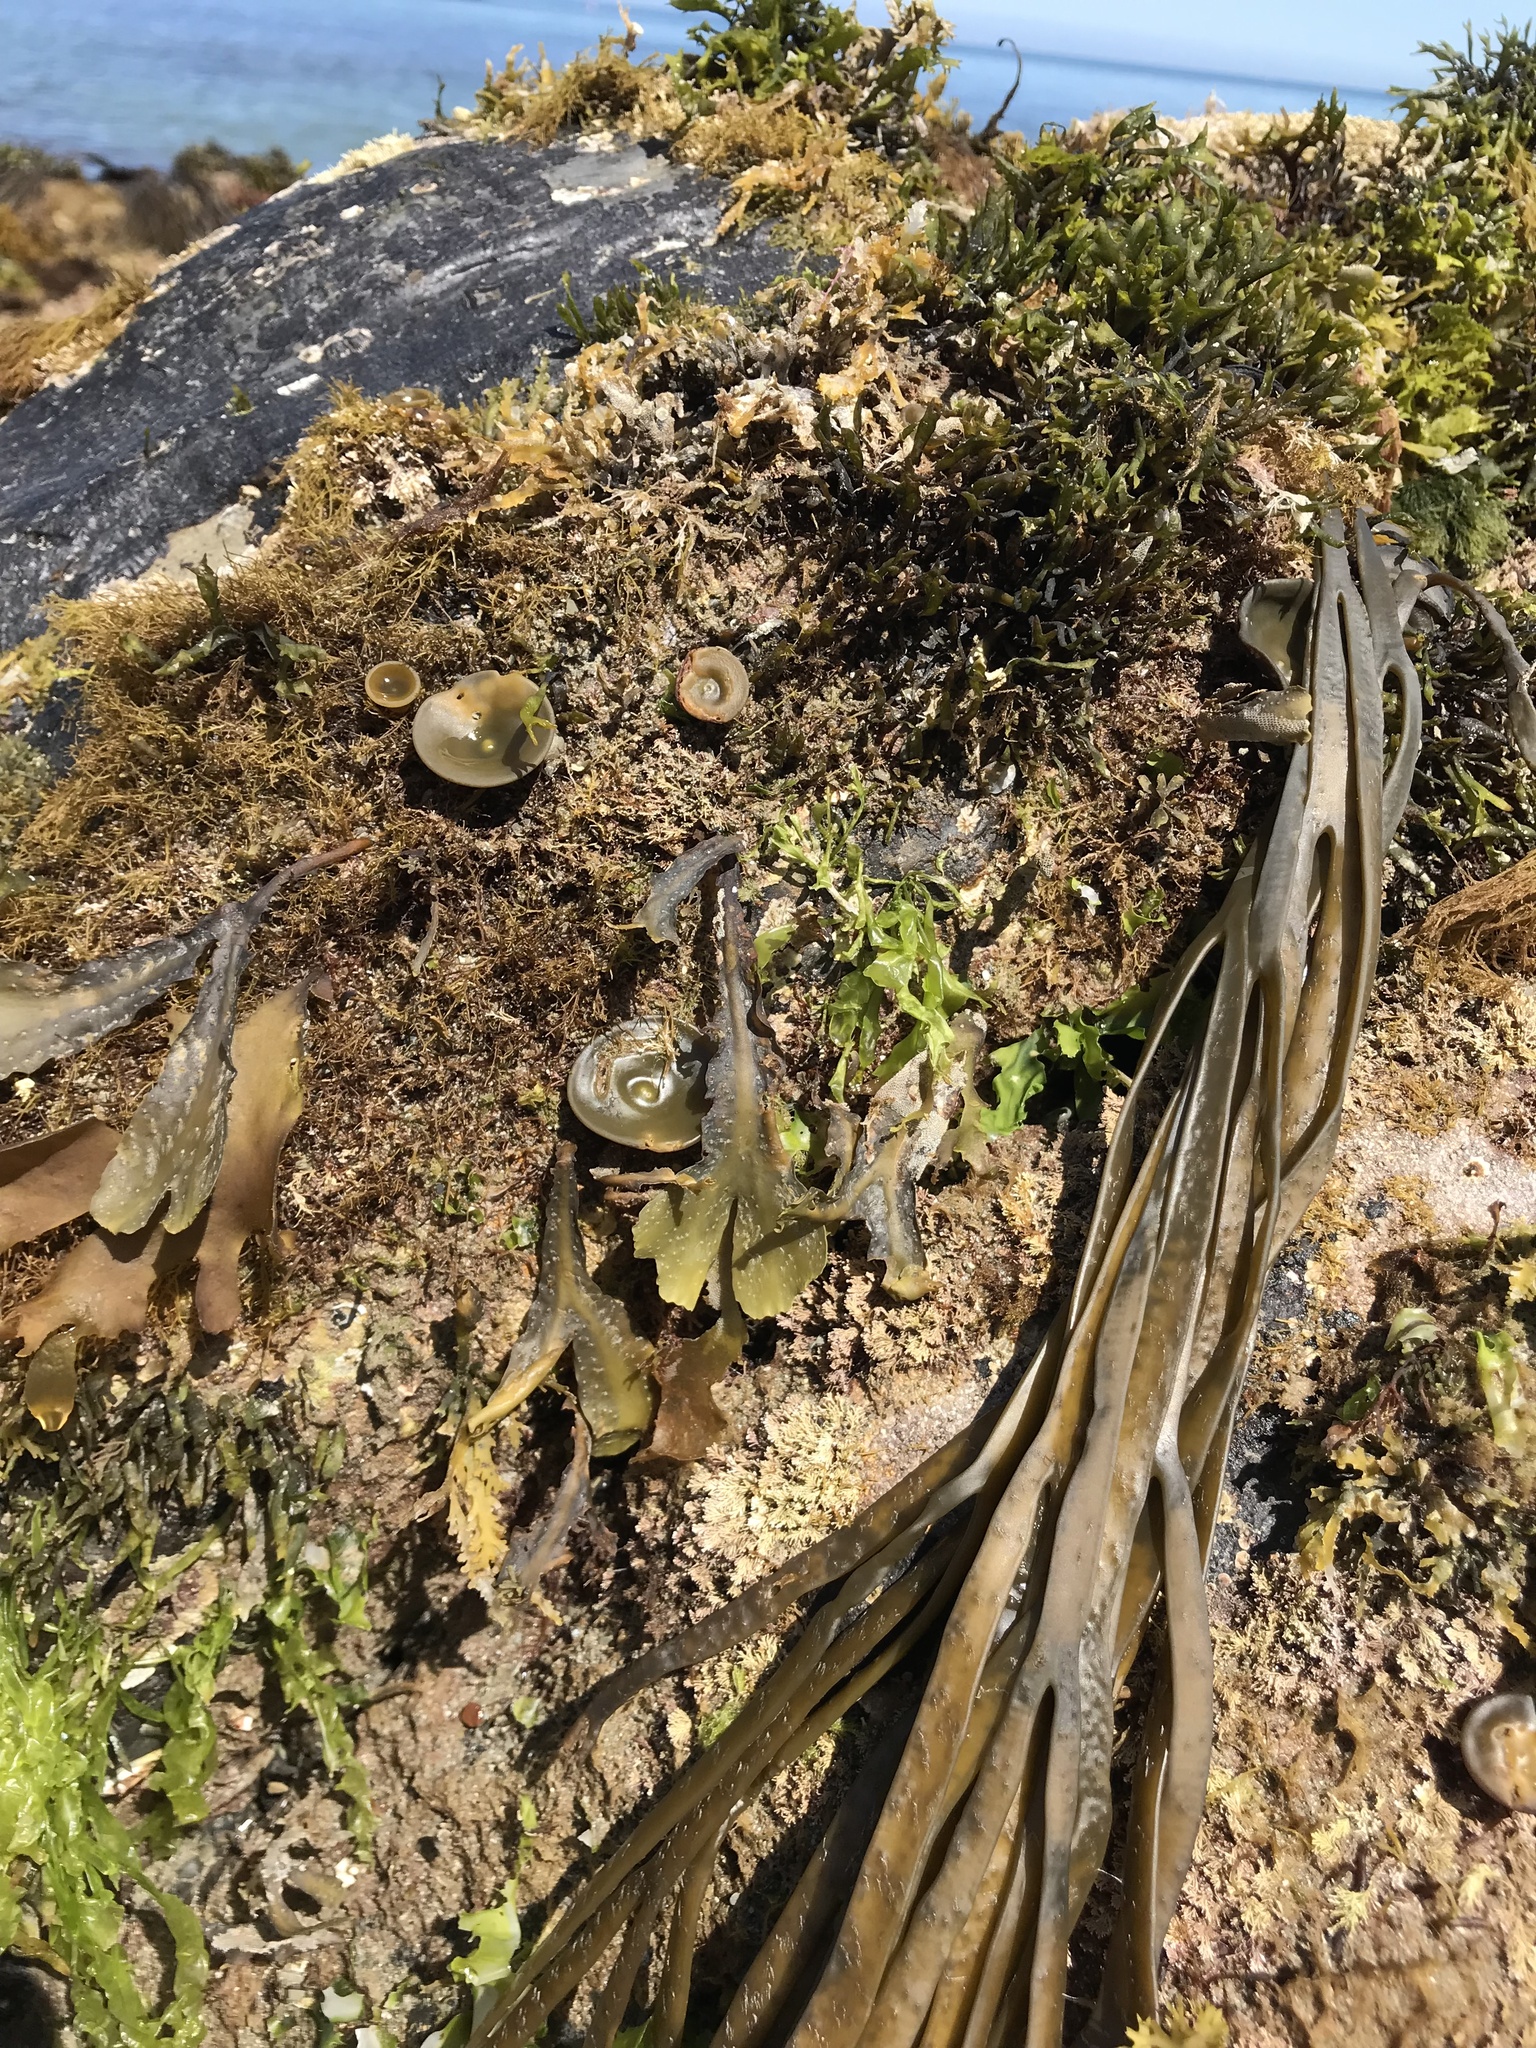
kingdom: Chromista
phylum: Ochrophyta
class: Phaeophyceae
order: Fucales
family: Himanthaliaceae
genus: Himanthalia
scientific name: Himanthalia elongata
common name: Sea-thong
